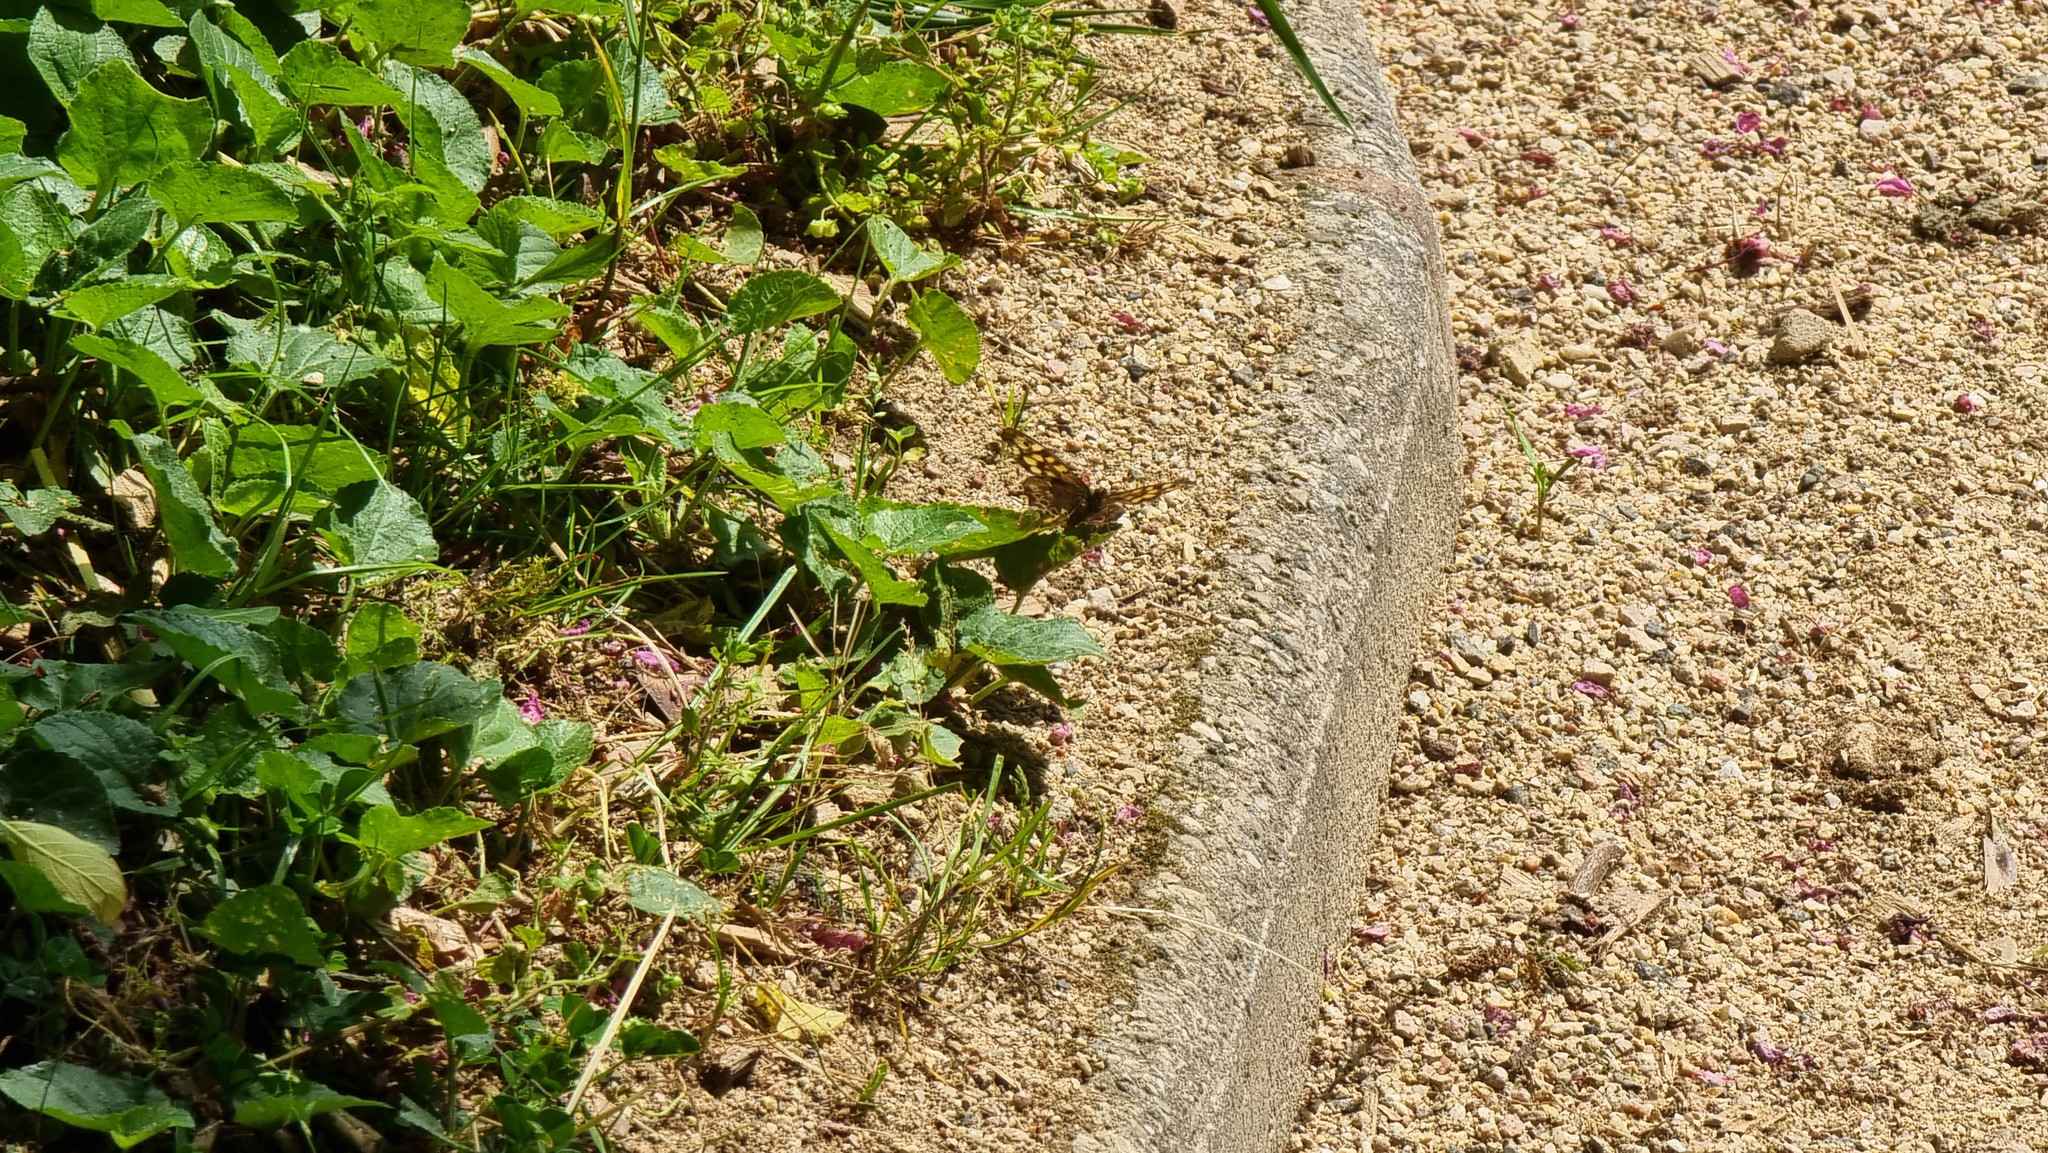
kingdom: Animalia
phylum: Arthropoda
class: Insecta
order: Lepidoptera
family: Nymphalidae
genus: Pararge
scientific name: Pararge aegeria
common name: Speckled wood
